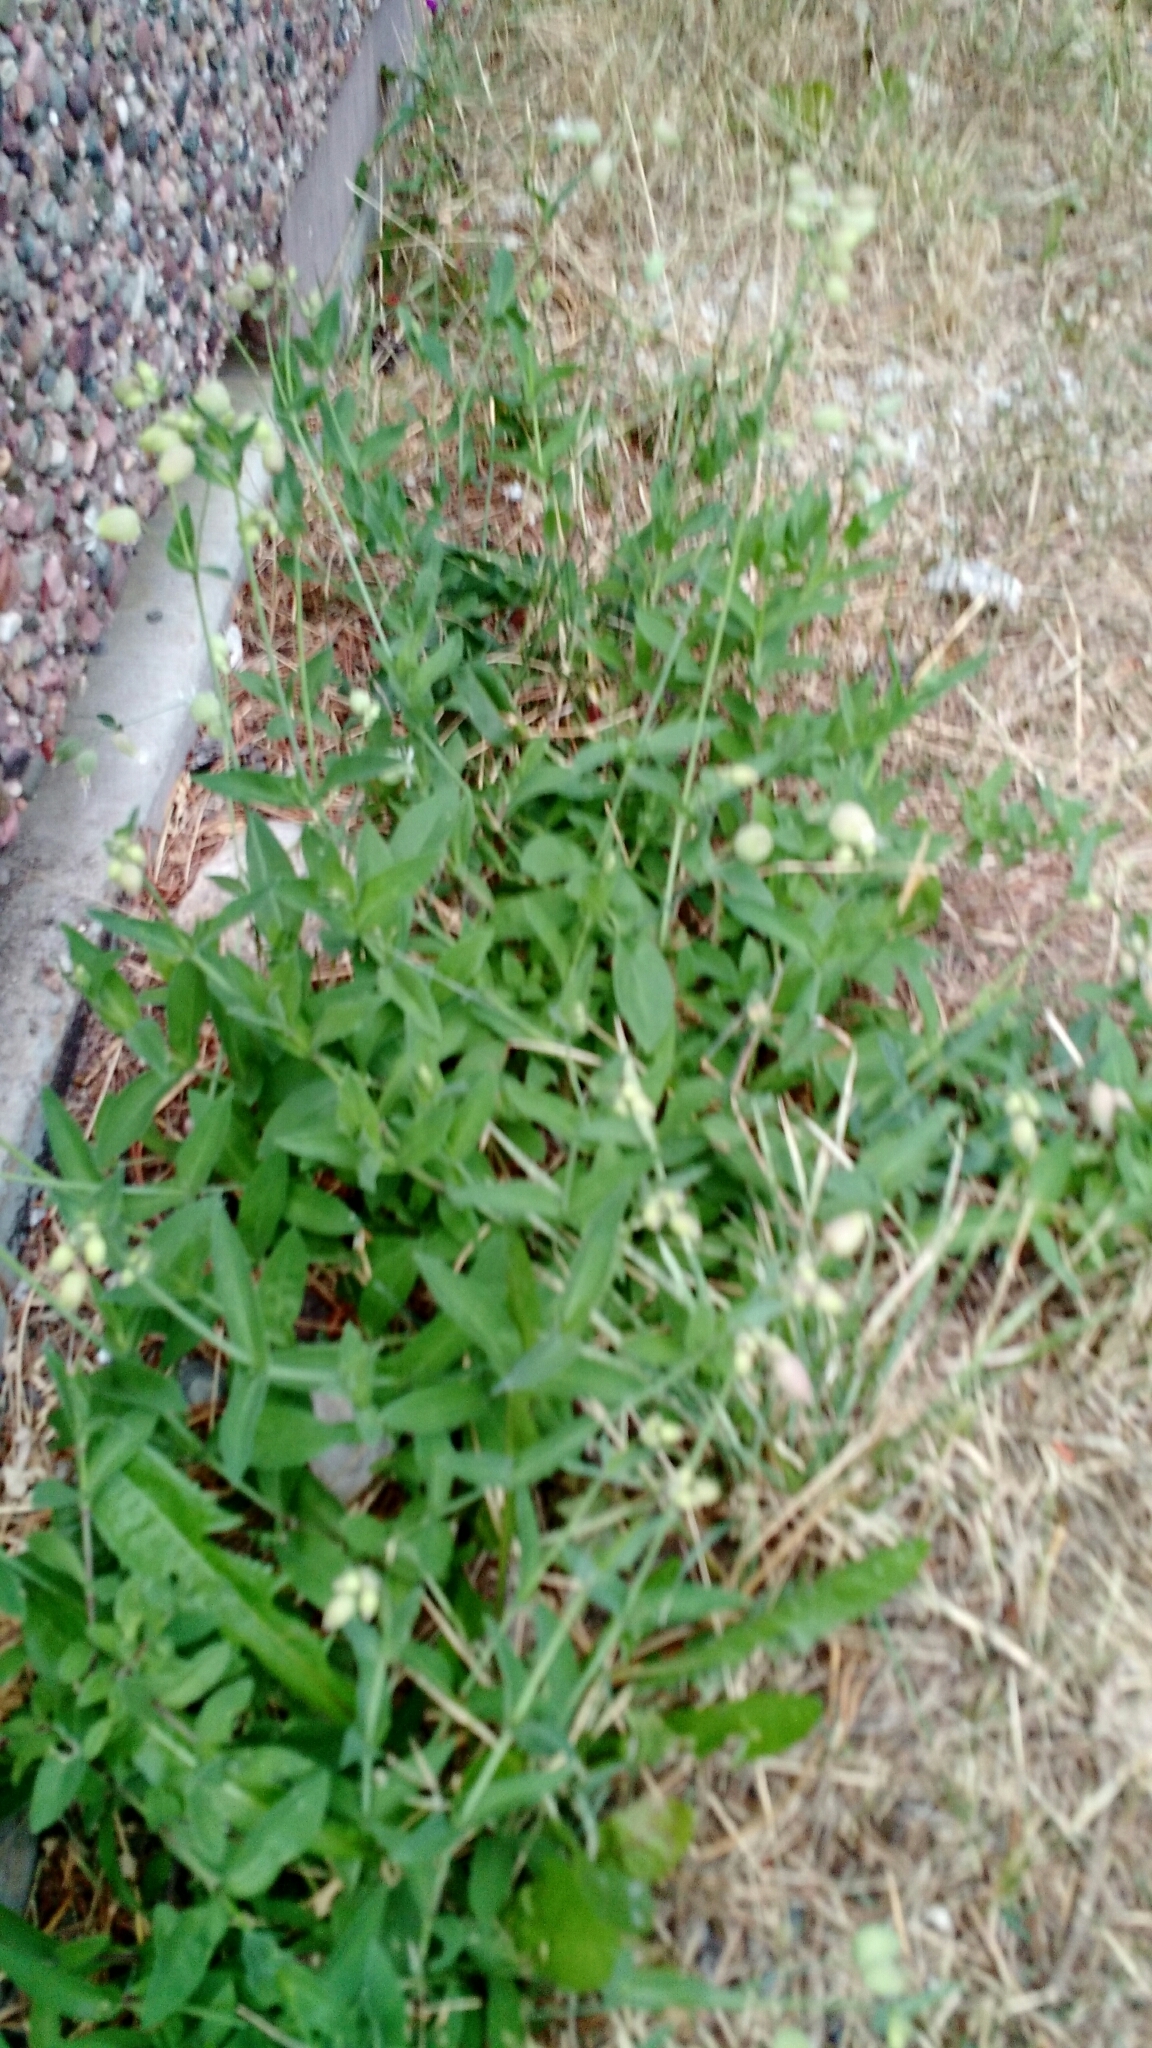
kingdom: Plantae
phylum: Tracheophyta
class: Magnoliopsida
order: Caryophyllales
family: Caryophyllaceae
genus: Silene
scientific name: Silene vulgaris
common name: Bladder campion
